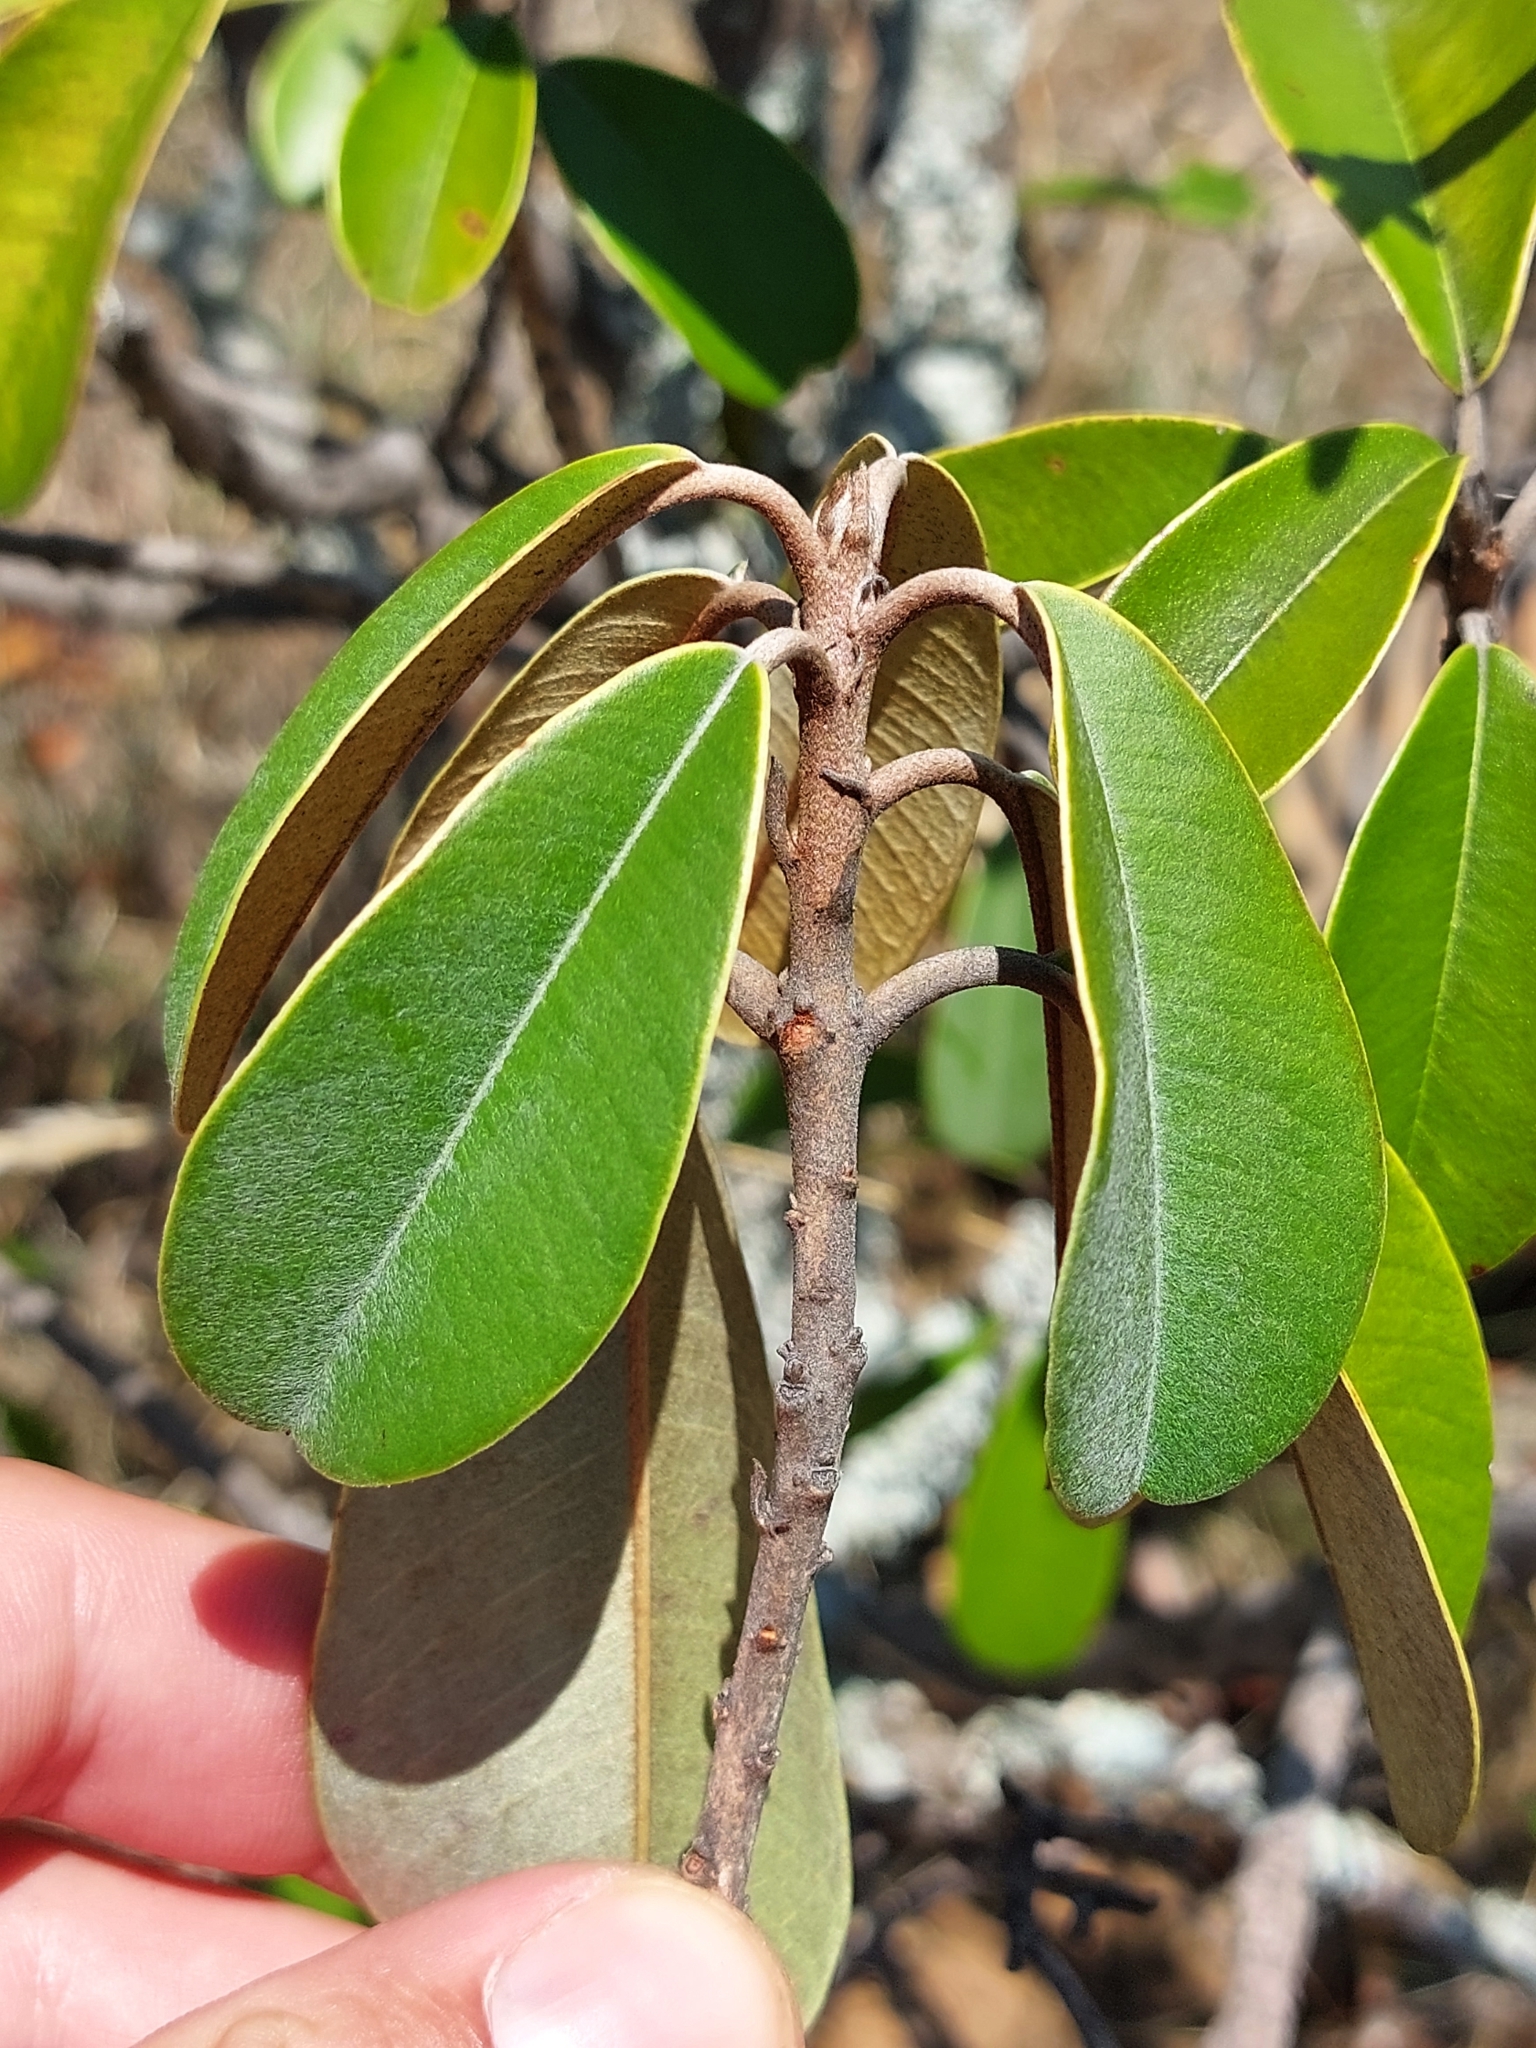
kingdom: Plantae
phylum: Tracheophyta
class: Magnoliopsida
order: Ericales
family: Sapotaceae
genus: Englerophytum
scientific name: Englerophytum magalismontanum
